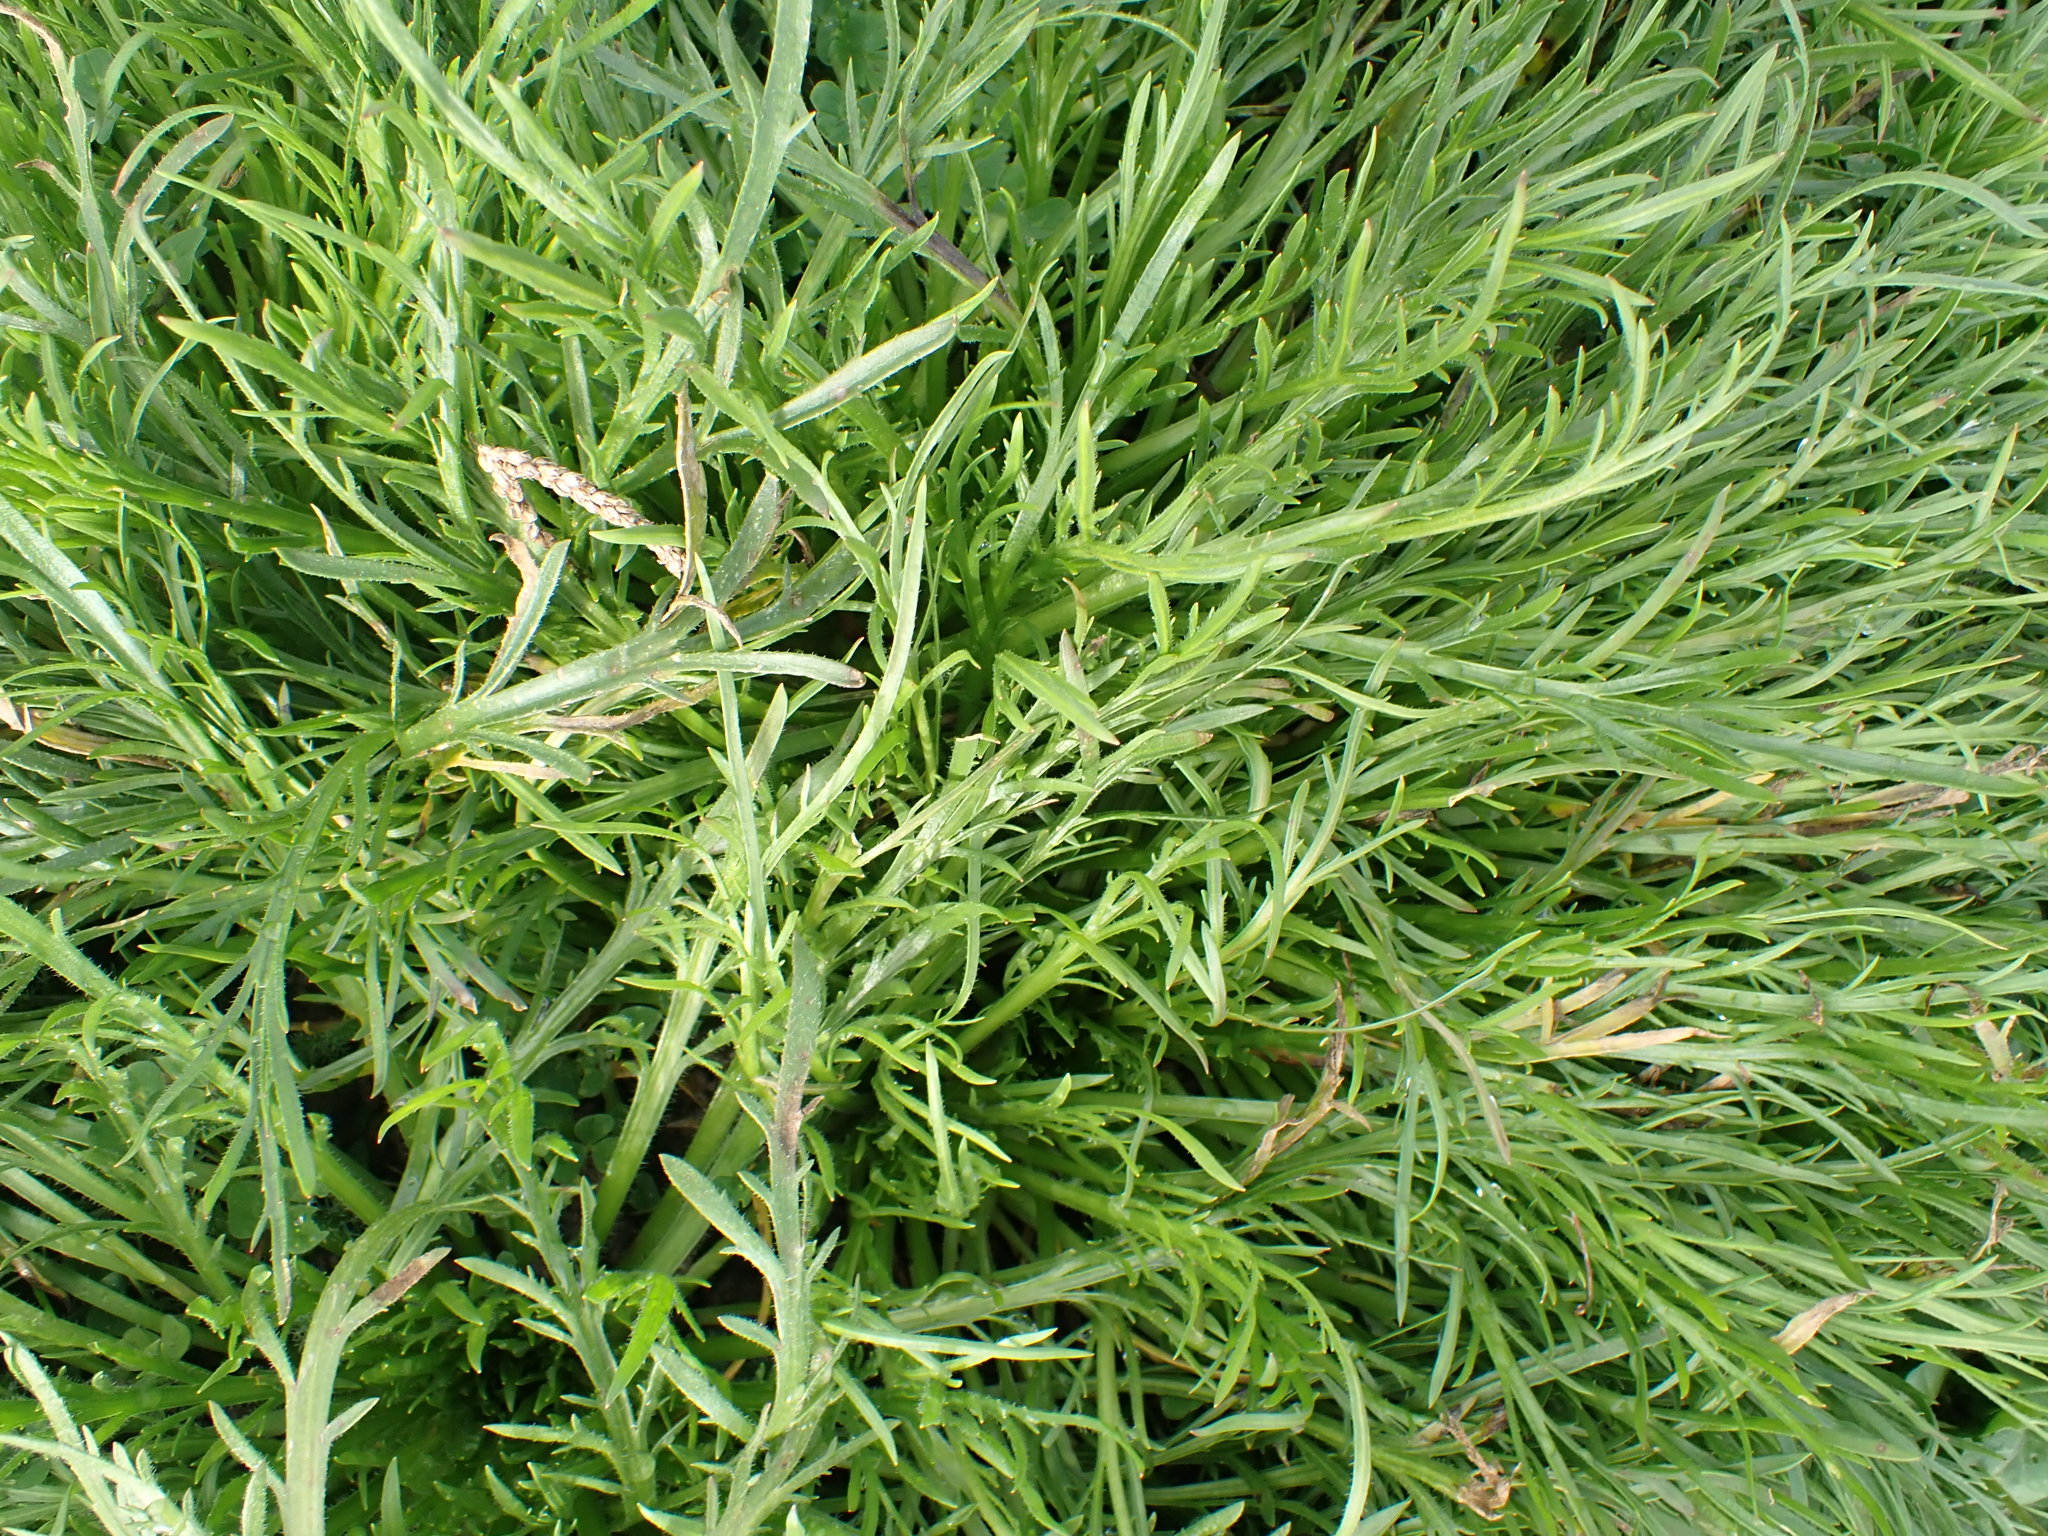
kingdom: Plantae
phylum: Tracheophyta
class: Magnoliopsida
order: Lamiales
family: Plantaginaceae
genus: Plantago
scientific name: Plantago coronopus
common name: Buck's-horn plantain
